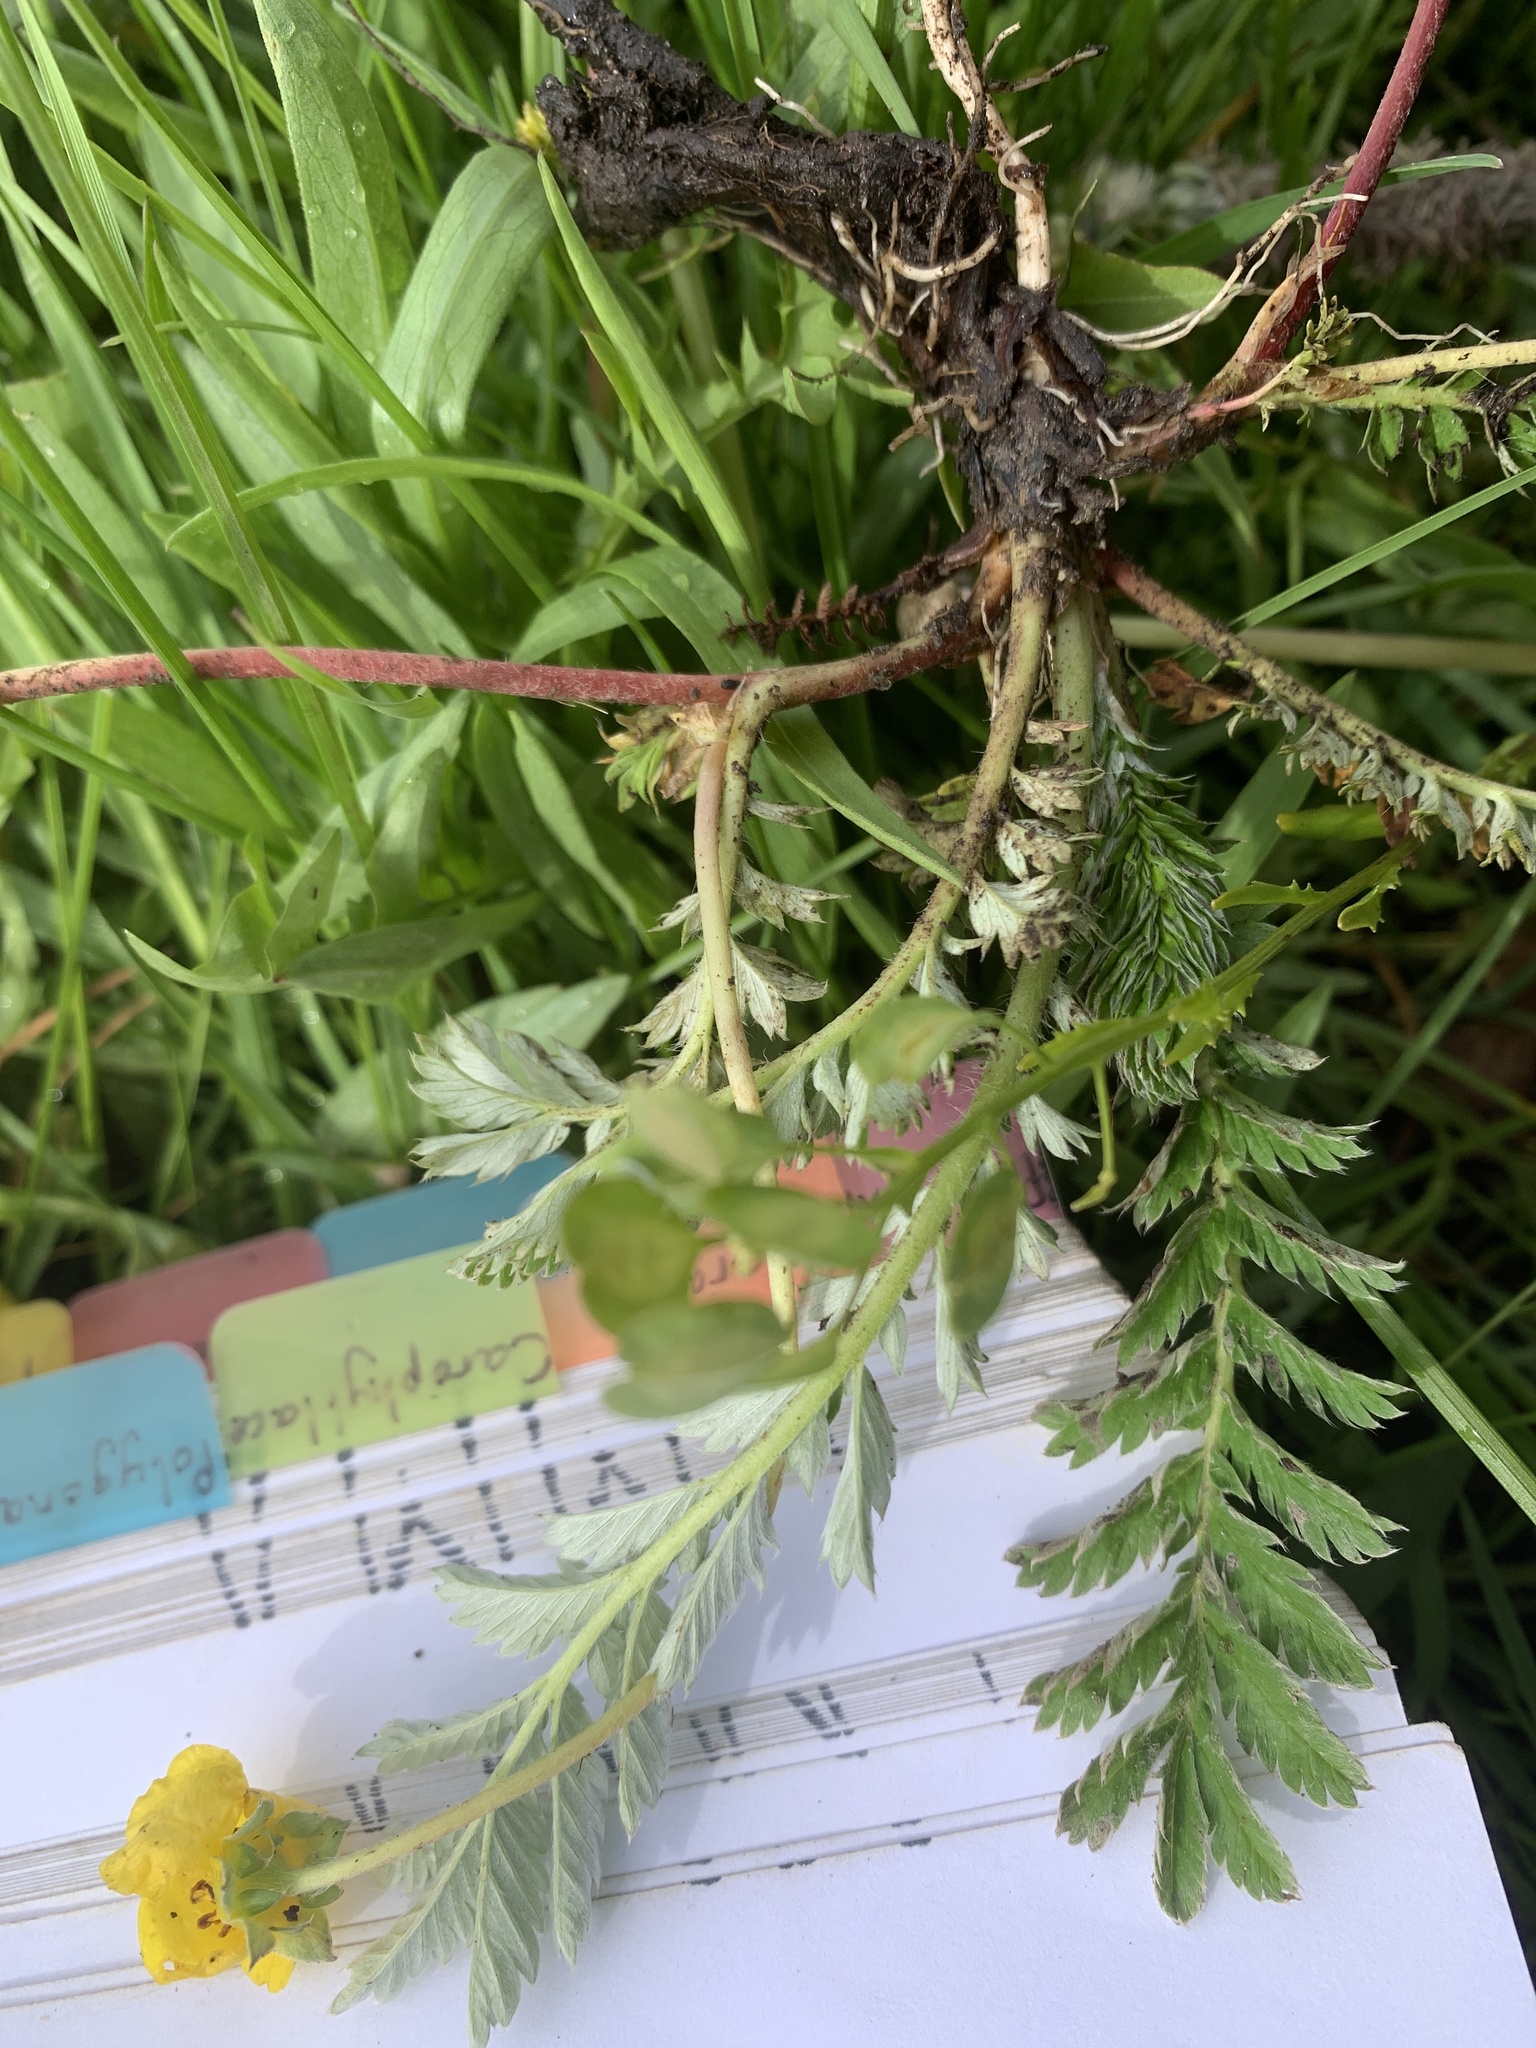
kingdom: Plantae
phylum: Tracheophyta
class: Magnoliopsida
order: Rosales
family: Rosaceae
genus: Argentina
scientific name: Argentina anserina
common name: Common silverweed
